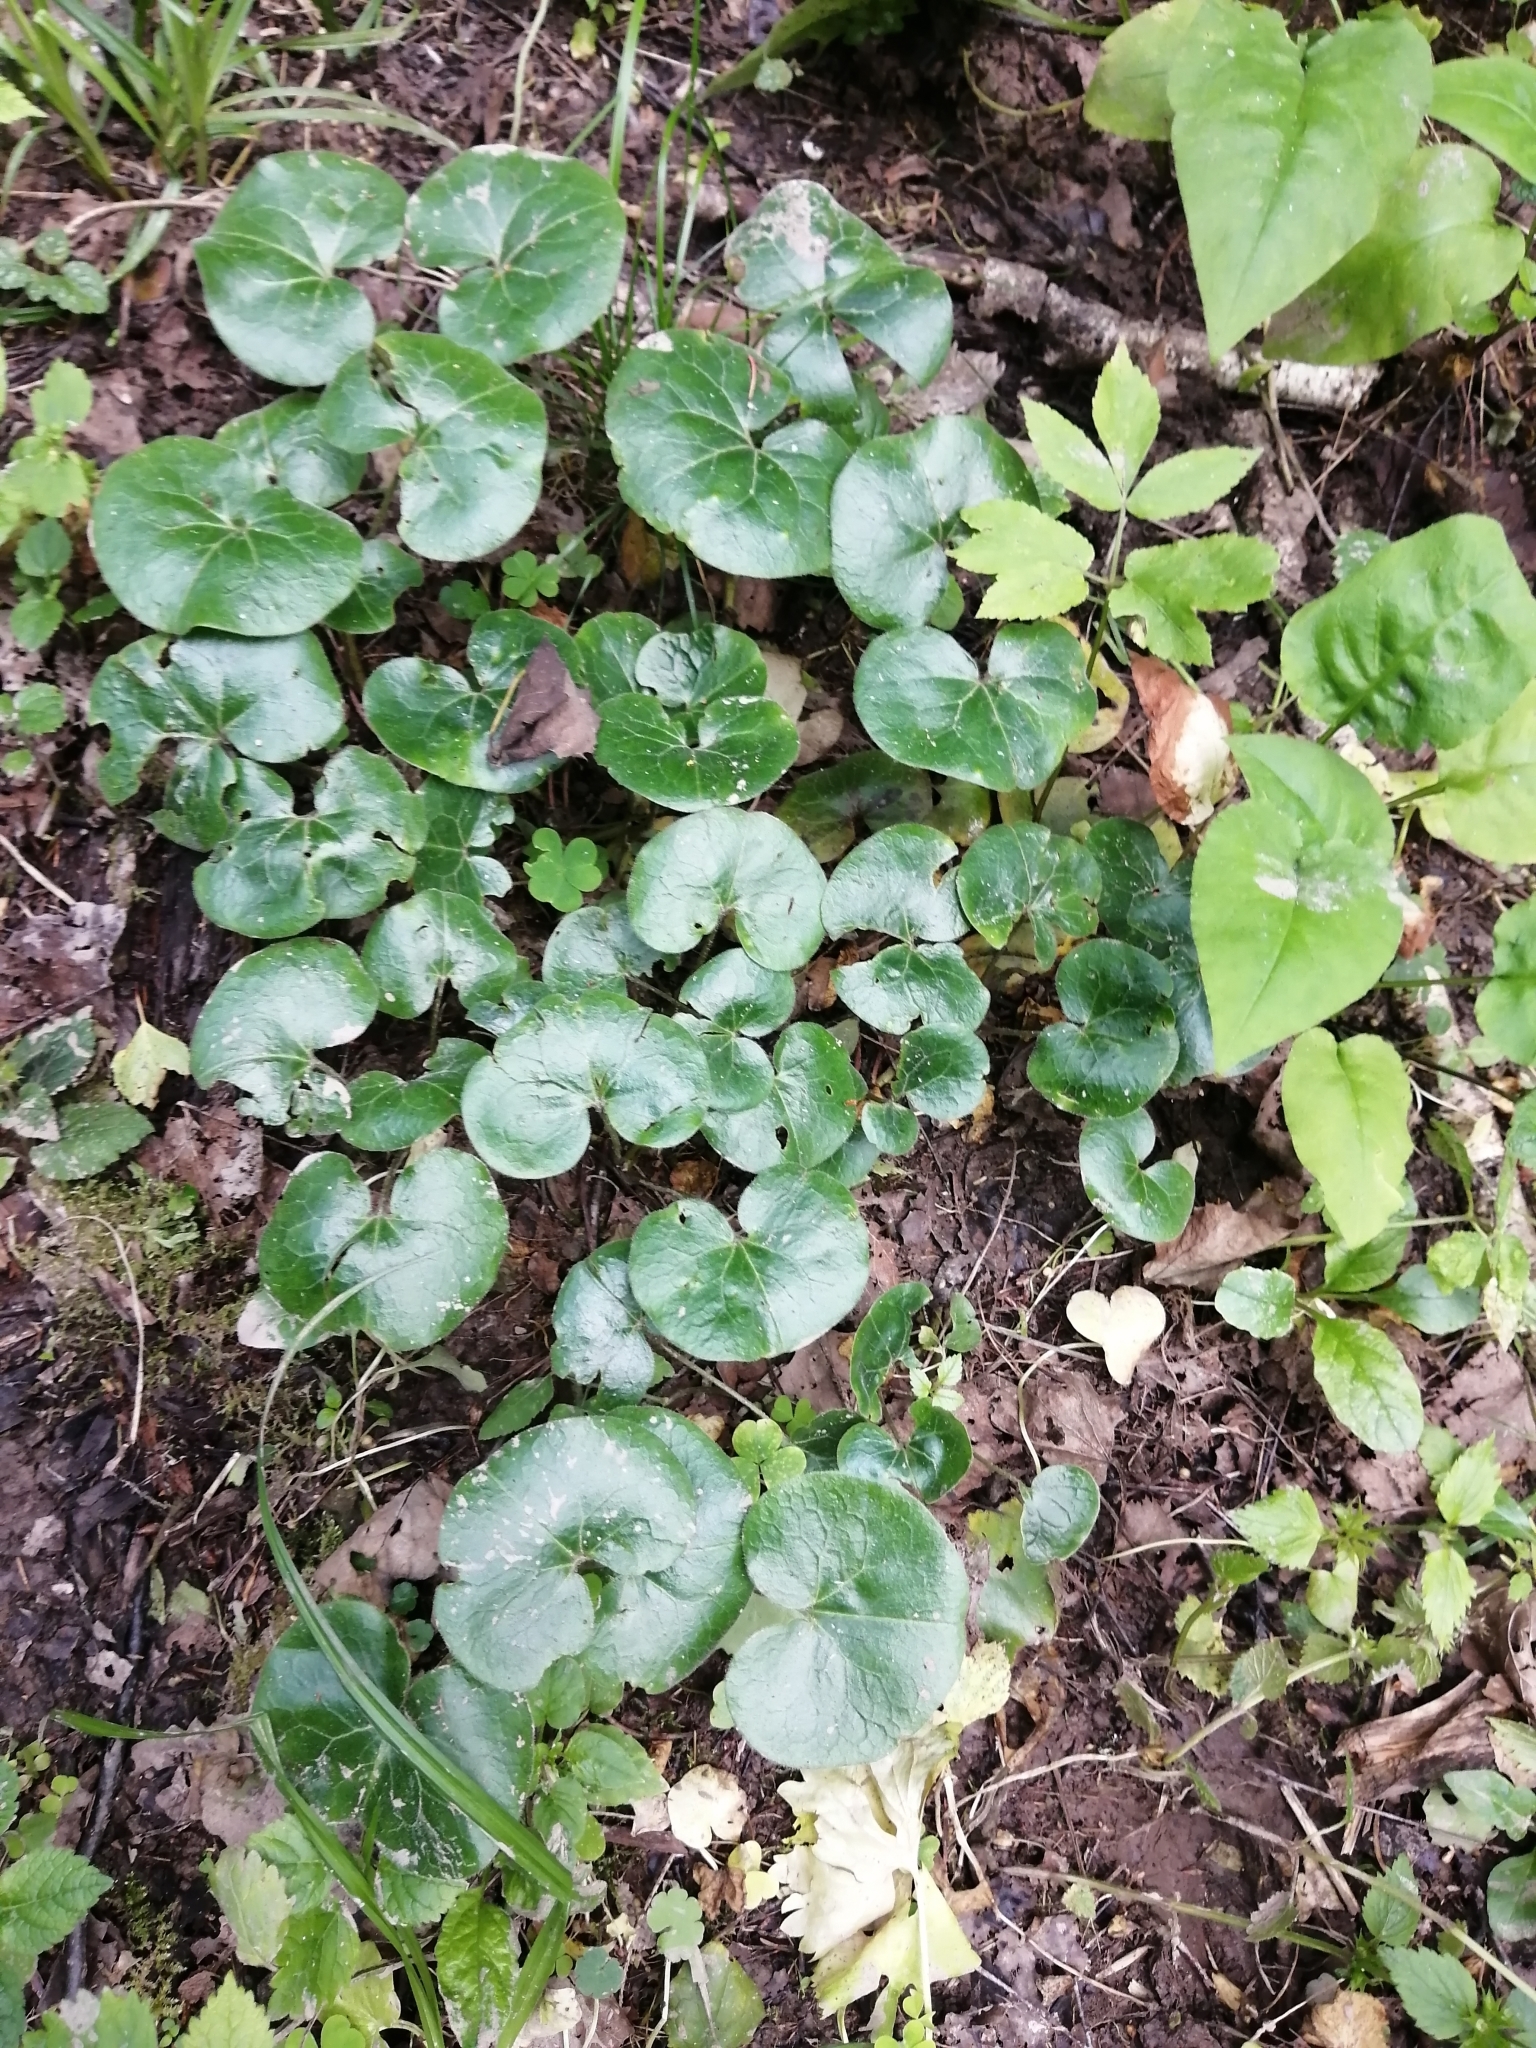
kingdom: Plantae
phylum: Tracheophyta
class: Magnoliopsida
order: Piperales
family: Aristolochiaceae
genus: Asarum
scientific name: Asarum europaeum
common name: Asarabacca
